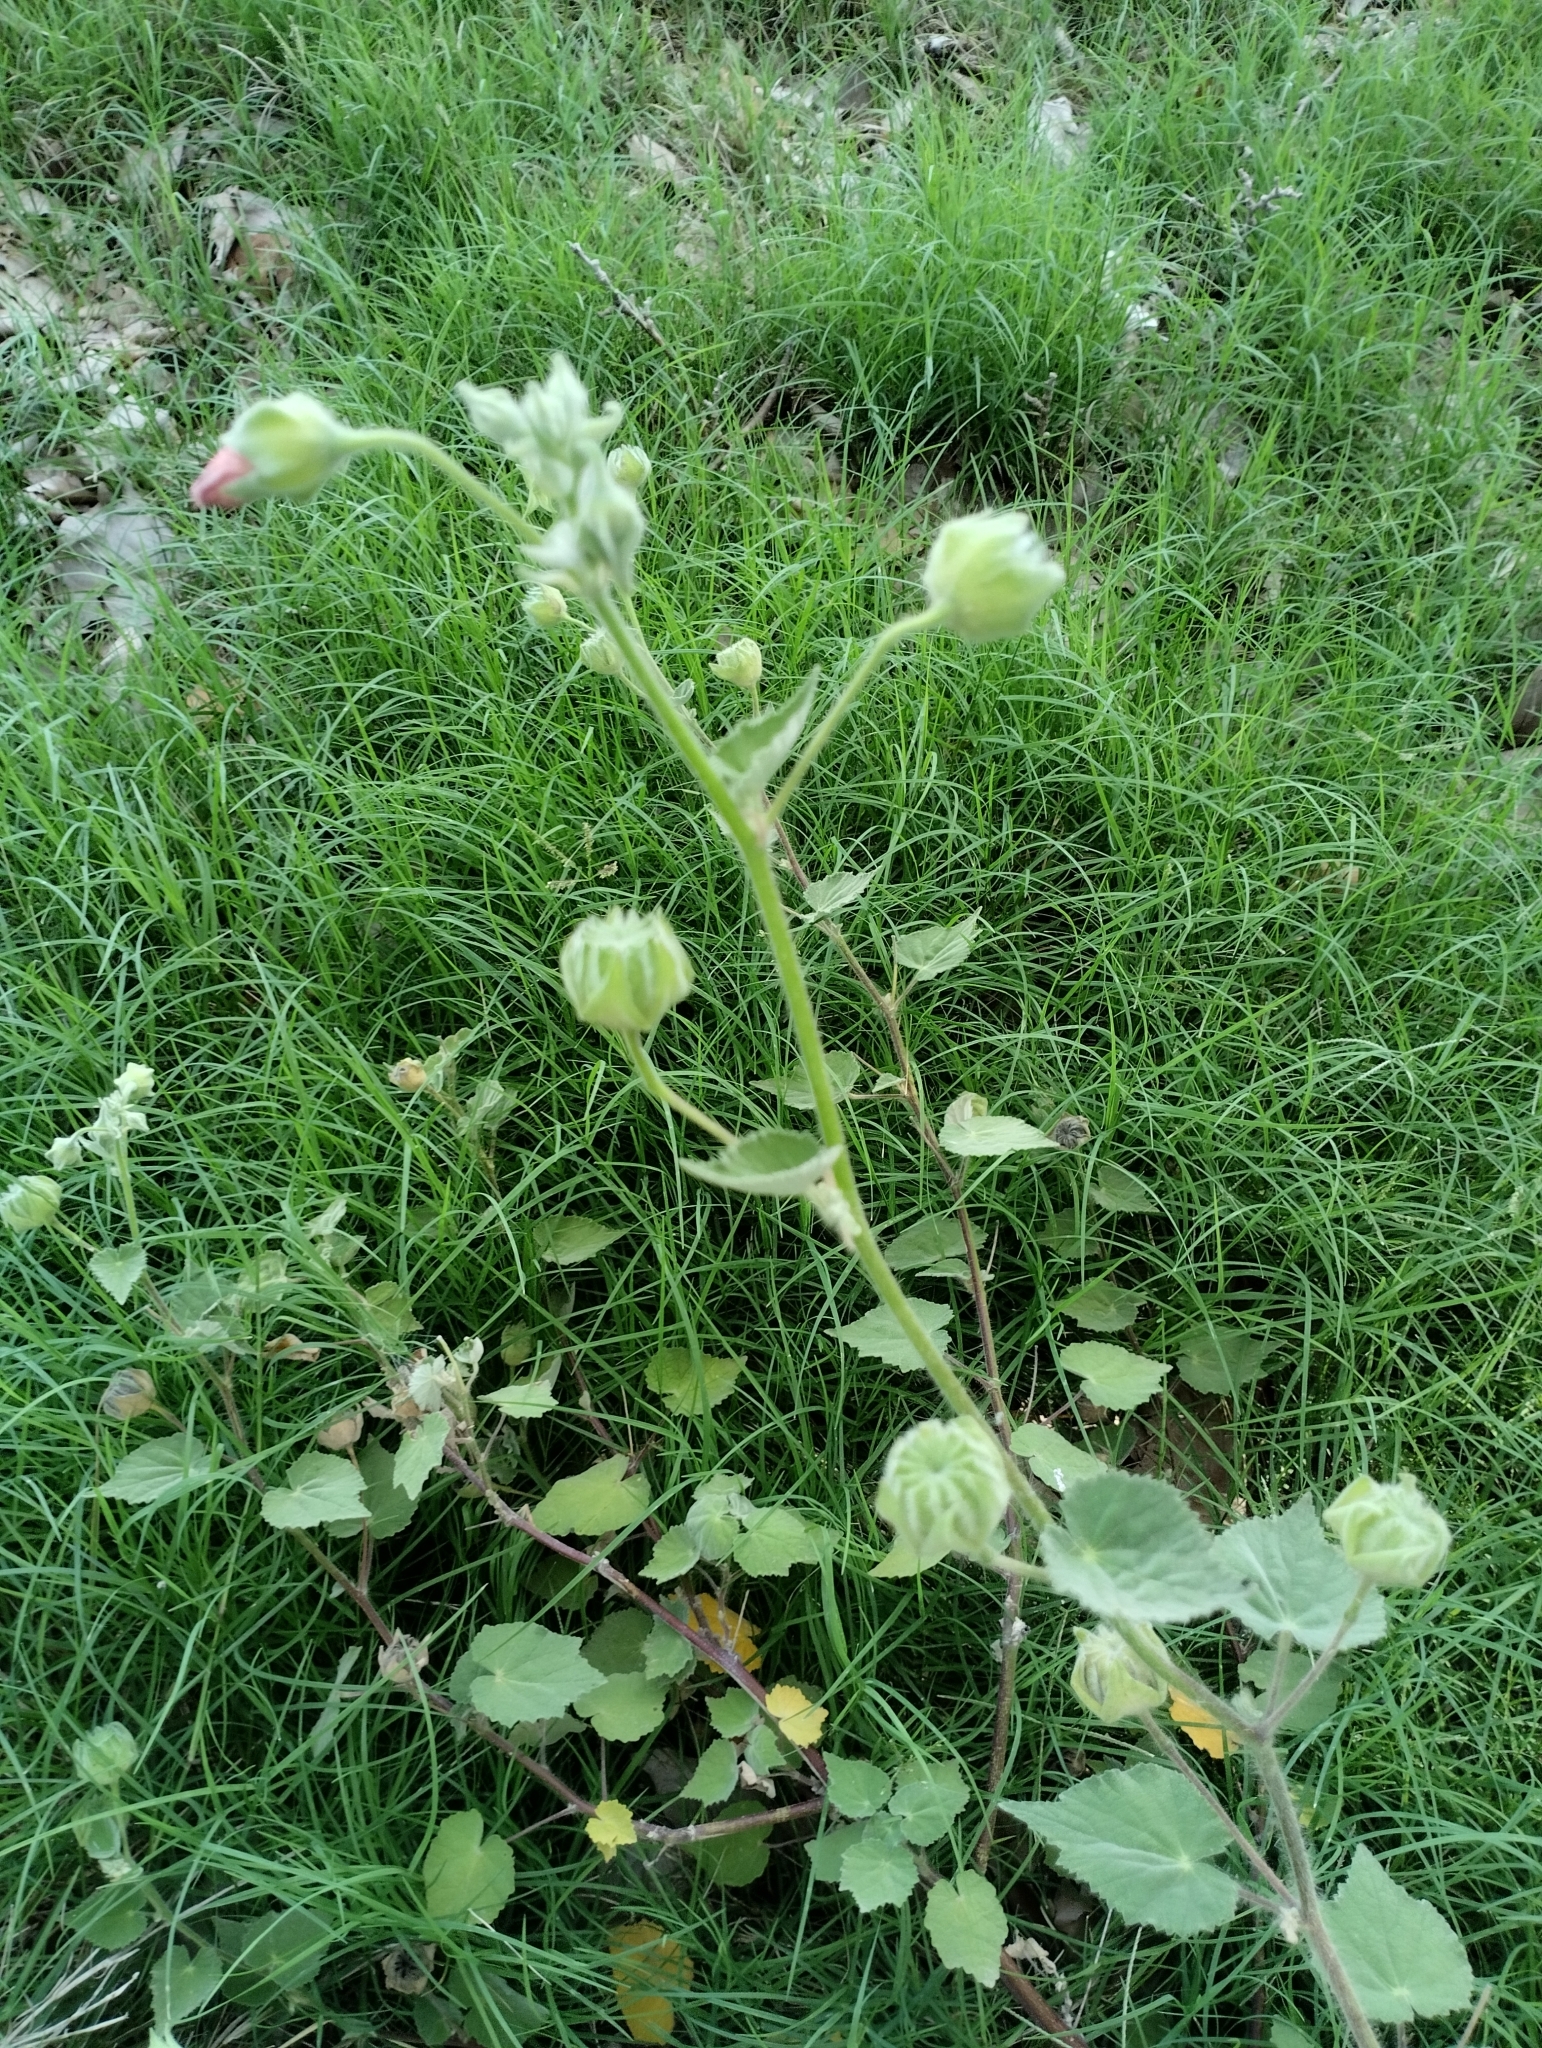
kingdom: Plantae
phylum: Tracheophyta
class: Magnoliopsida
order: Malvales
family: Malvaceae
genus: Callianthe
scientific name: Callianthe pauciflora
